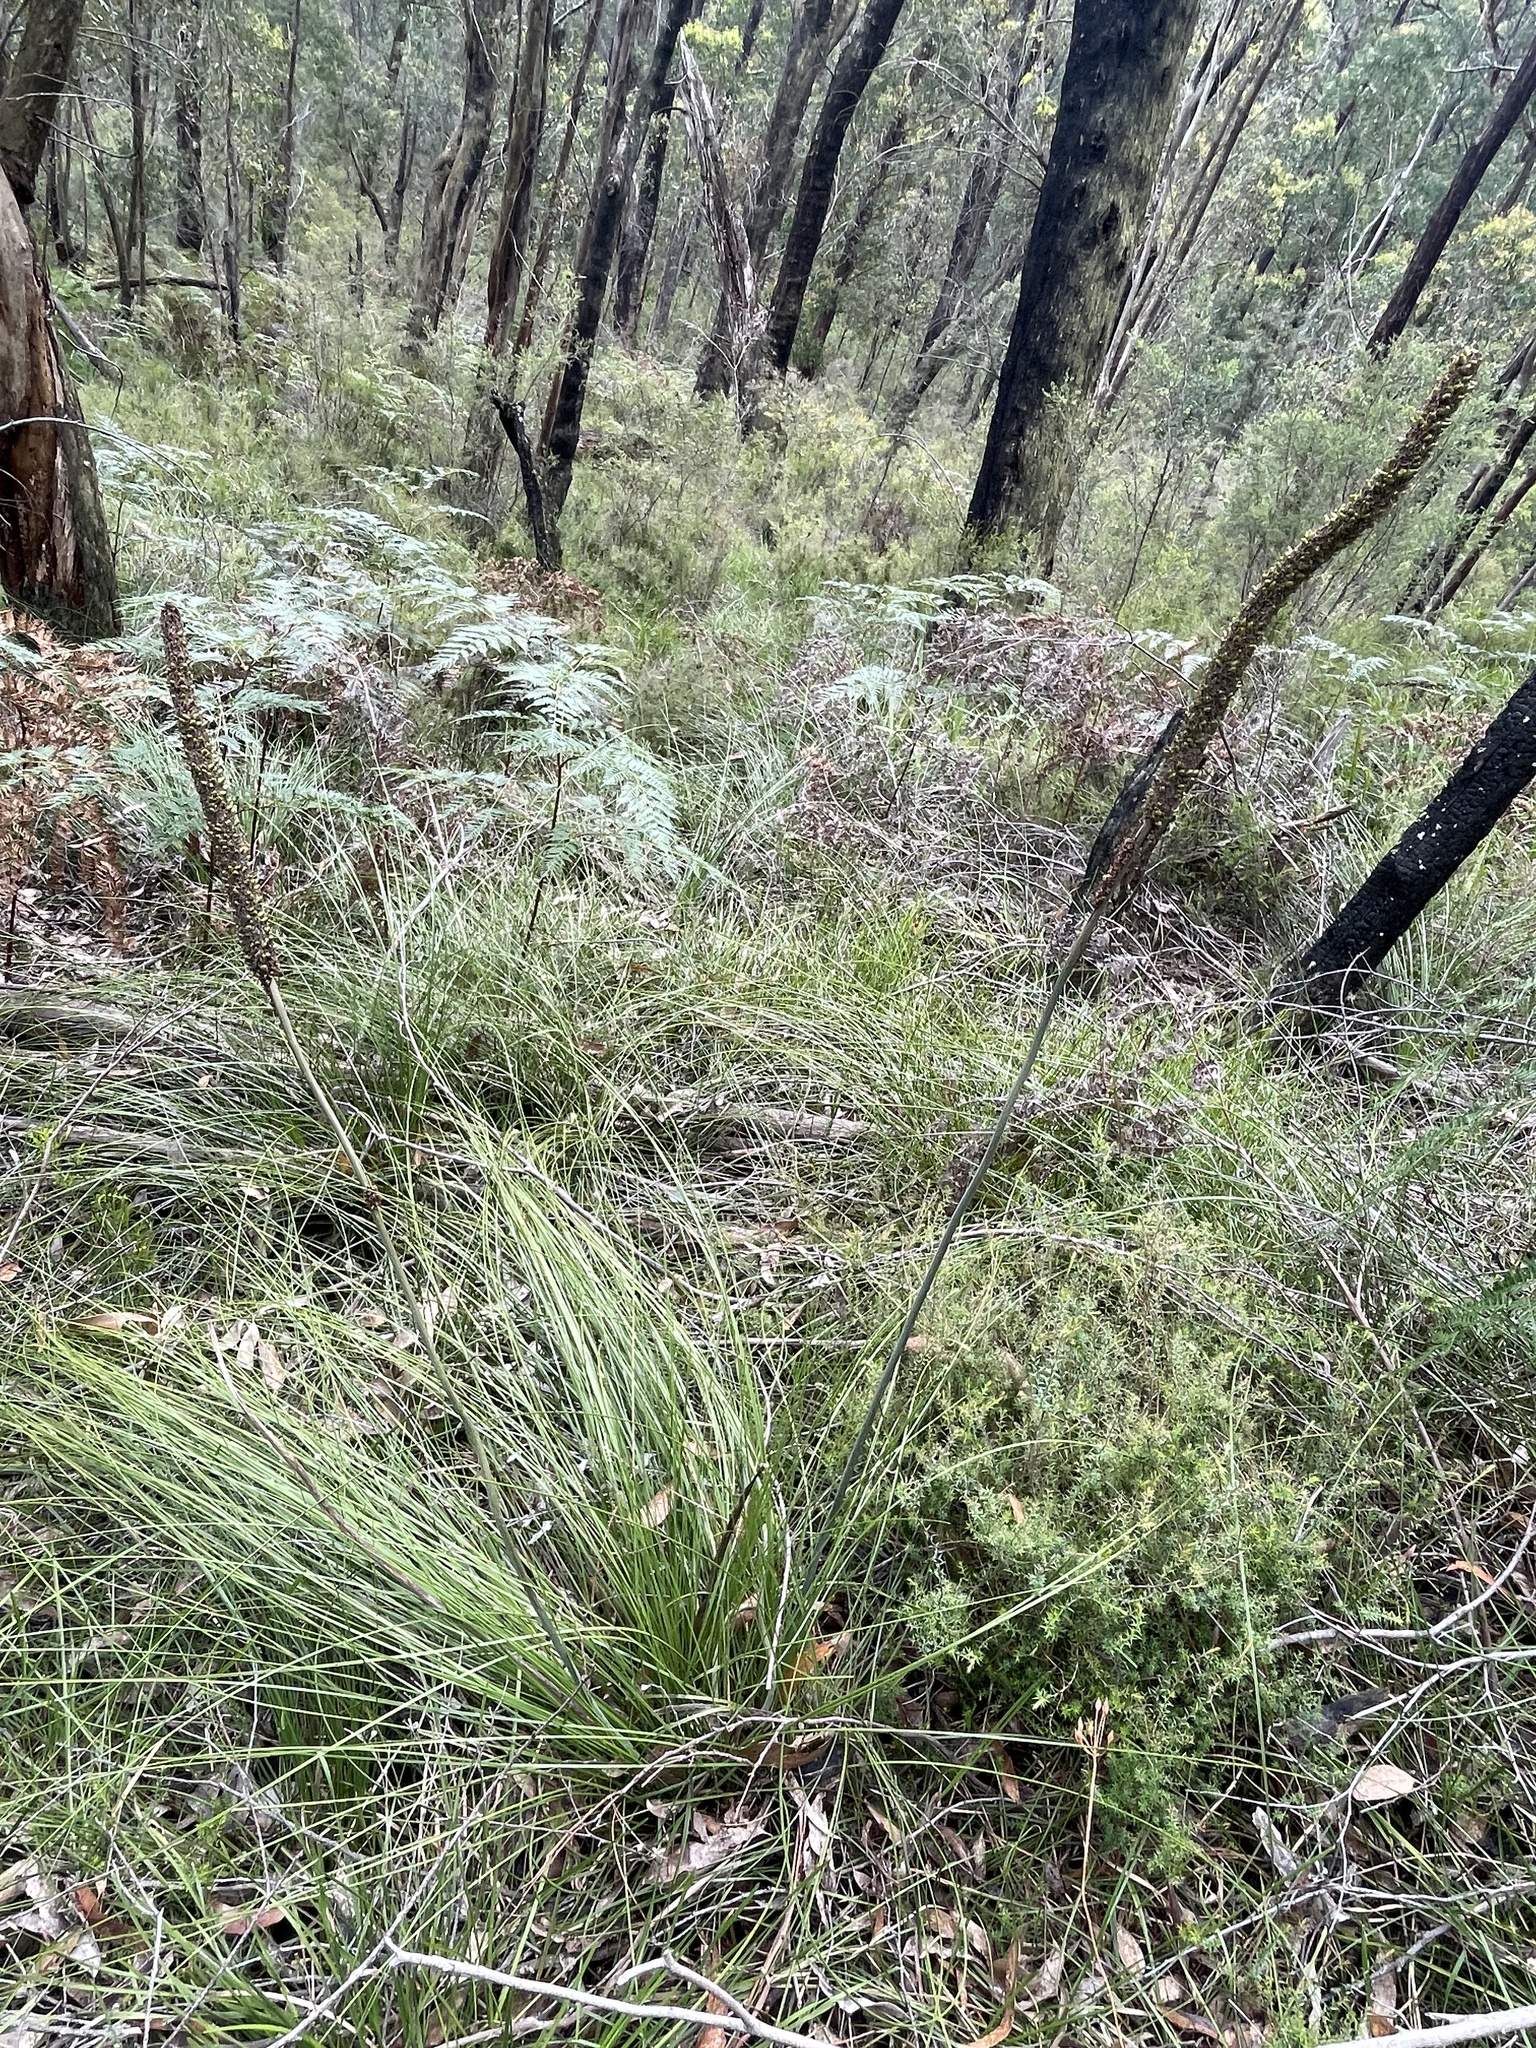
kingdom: Plantae
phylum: Tracheophyta
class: Liliopsida
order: Asparagales
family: Asphodelaceae
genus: Xanthorrhoea
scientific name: Xanthorrhoea minor
